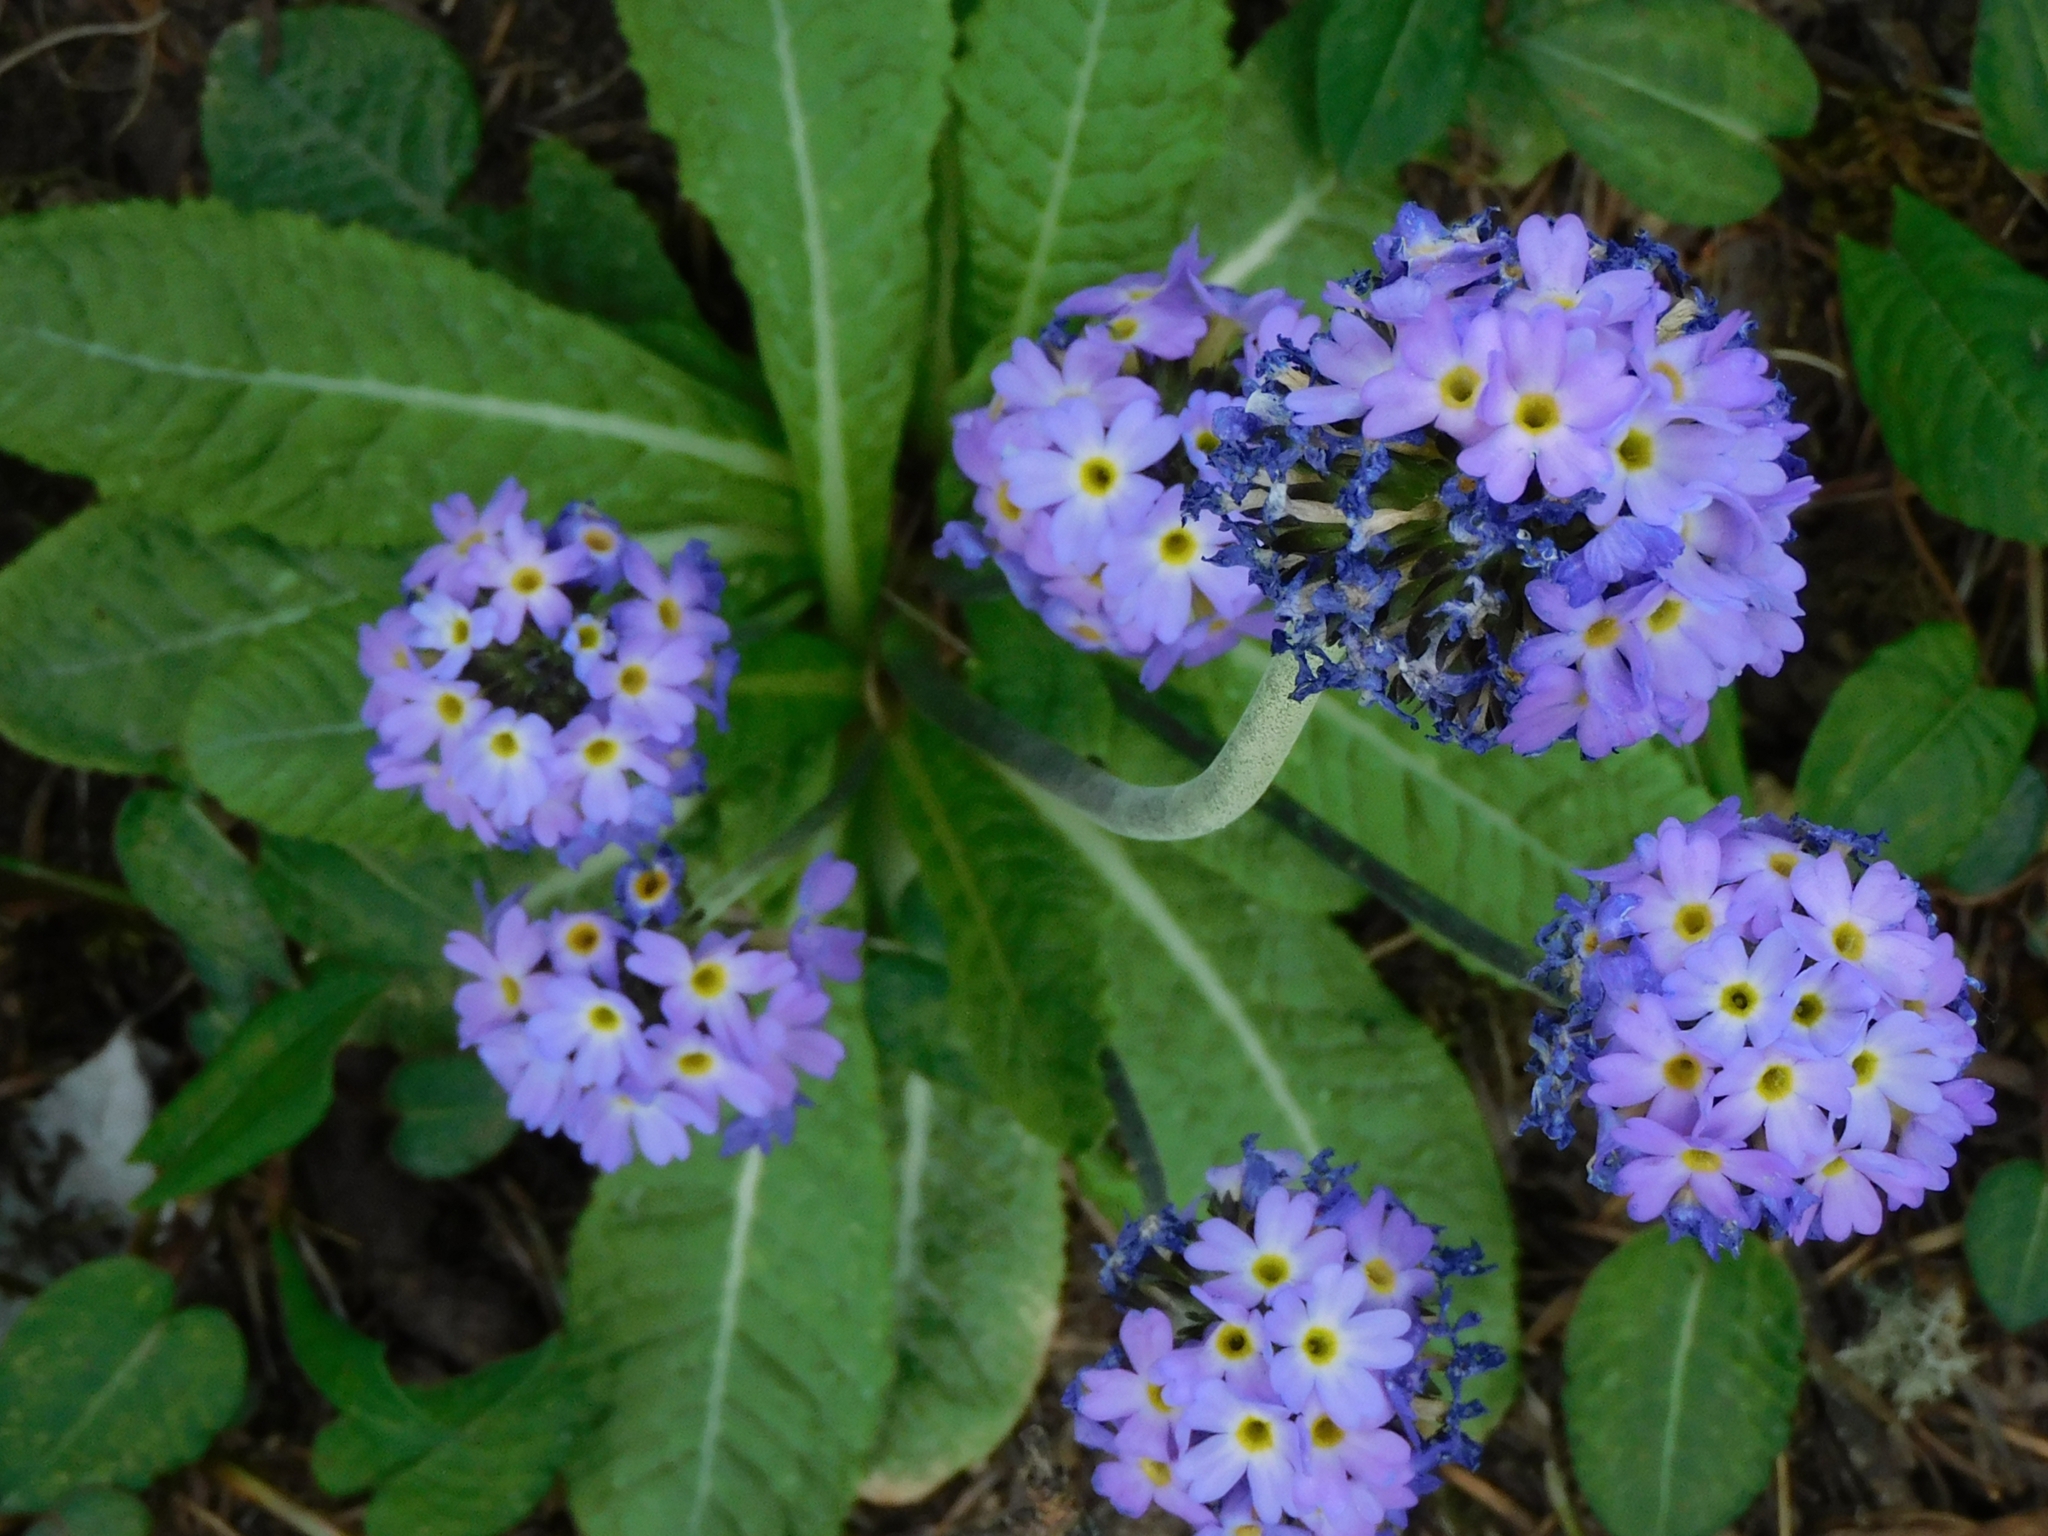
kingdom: Plantae
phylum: Tracheophyta
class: Magnoliopsida
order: Ericales
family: Primulaceae
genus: Primula
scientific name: Primula denticulata
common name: Drumstick primula
